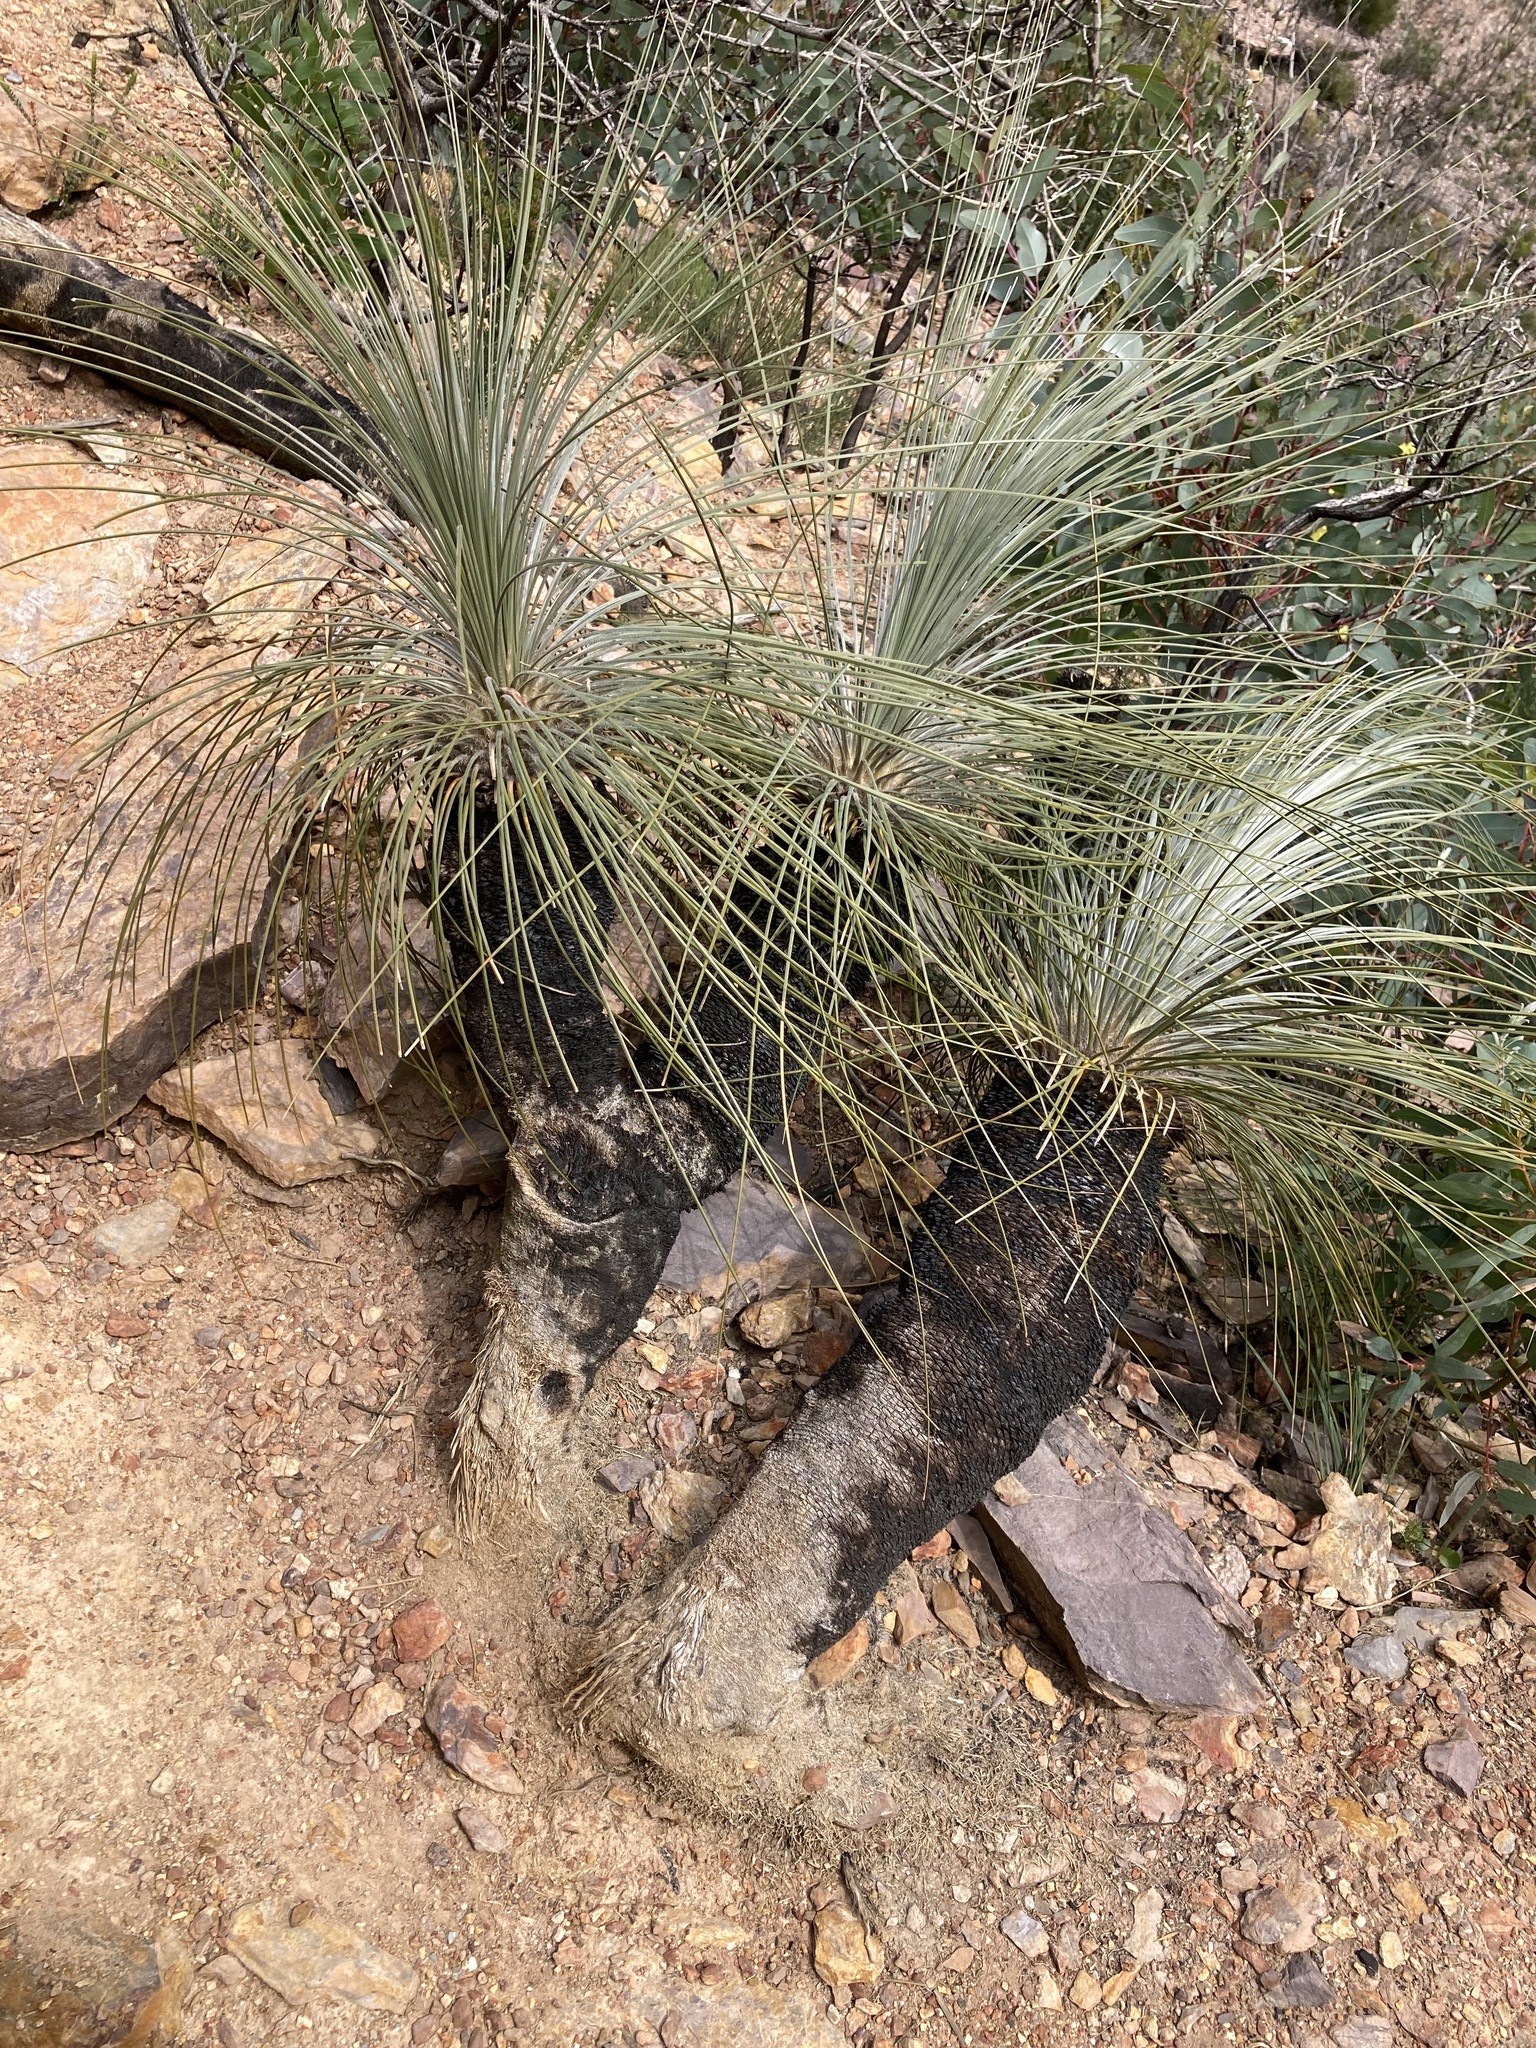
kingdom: Plantae
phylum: Tracheophyta
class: Liliopsida
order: Arecales
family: Dasypogonaceae
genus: Kingia
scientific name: Kingia australis
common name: Black gin
